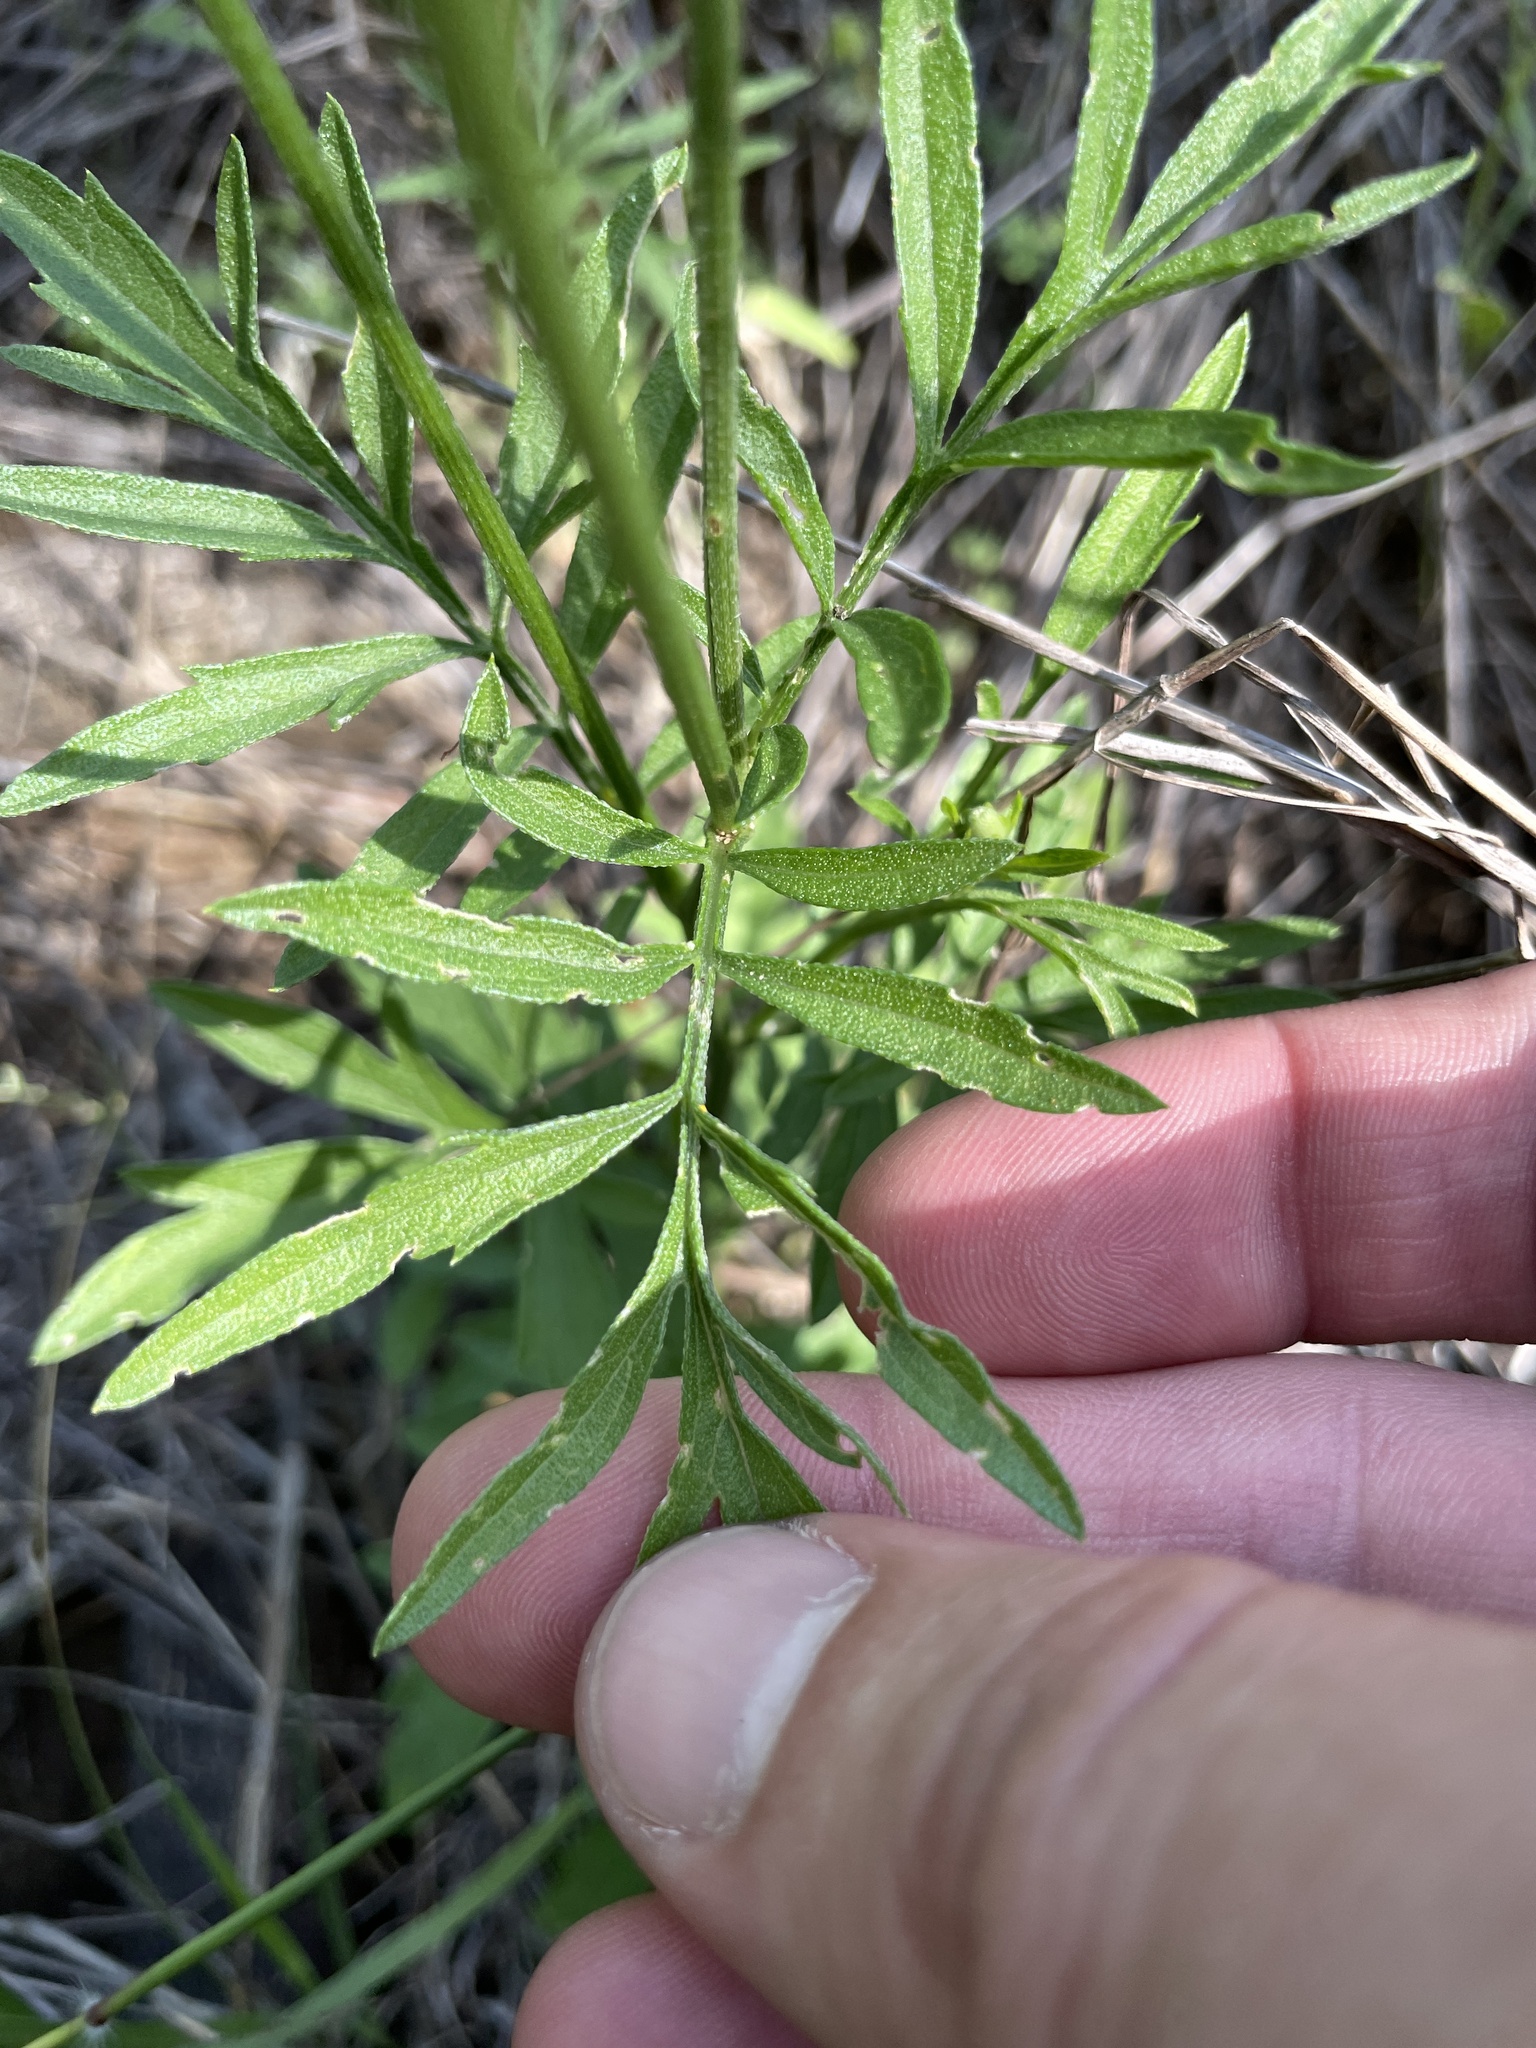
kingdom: Plantae
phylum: Tracheophyta
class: Magnoliopsida
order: Asterales
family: Asteraceae
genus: Ratibida
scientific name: Ratibida columnifera
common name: Prairie coneflower
